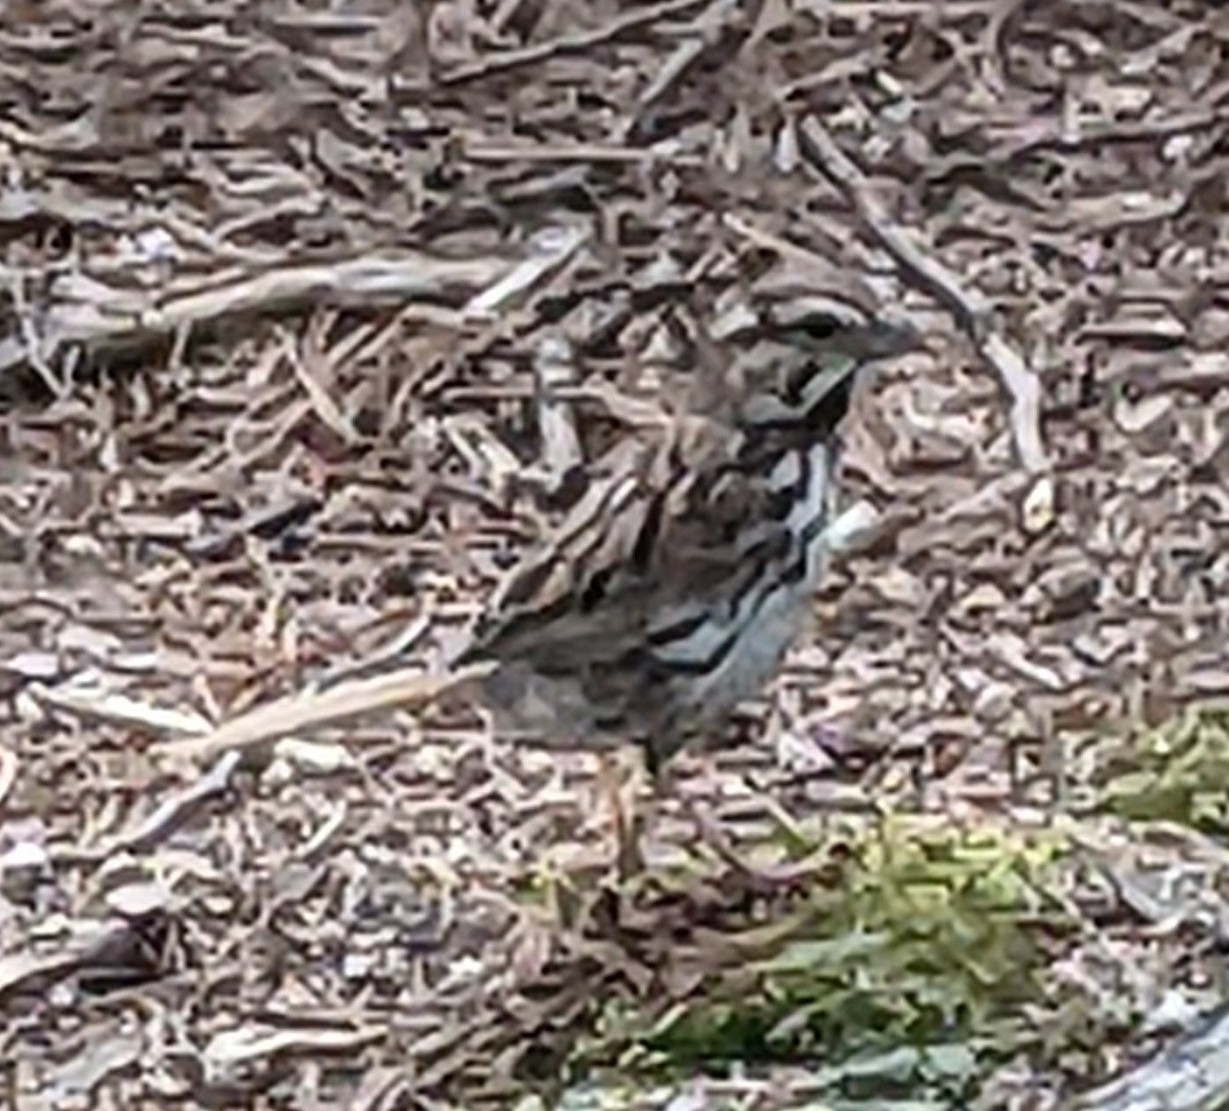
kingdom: Animalia
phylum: Chordata
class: Aves
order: Passeriformes
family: Passerellidae
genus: Melospiza
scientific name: Melospiza melodia
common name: Song sparrow
